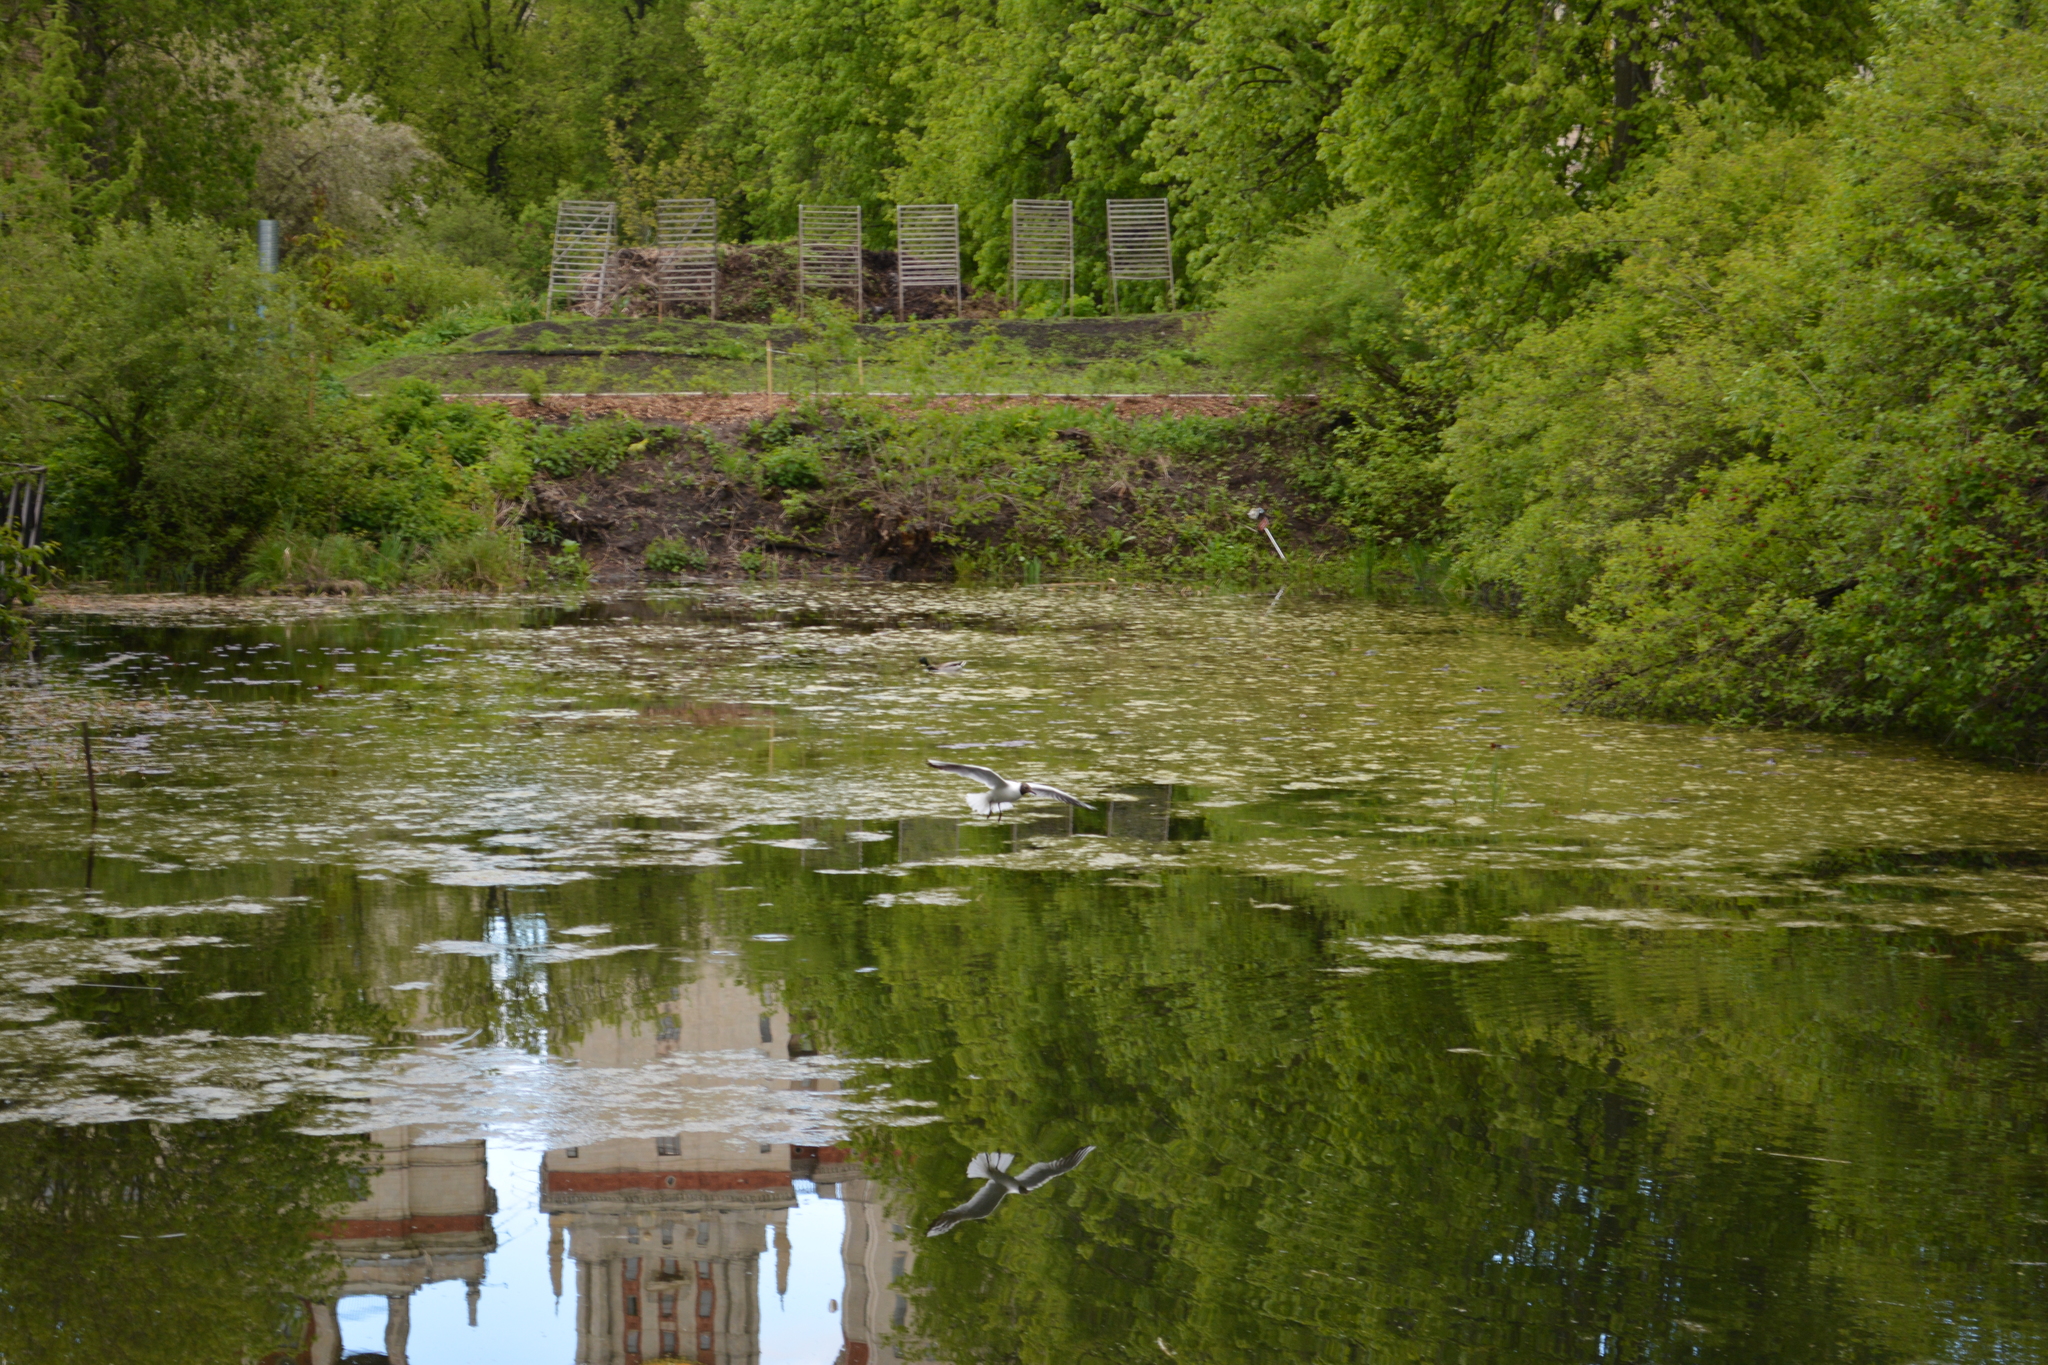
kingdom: Animalia
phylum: Chordata
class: Aves
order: Charadriiformes
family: Laridae
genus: Chroicocephalus
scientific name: Chroicocephalus ridibundus
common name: Black-headed gull
